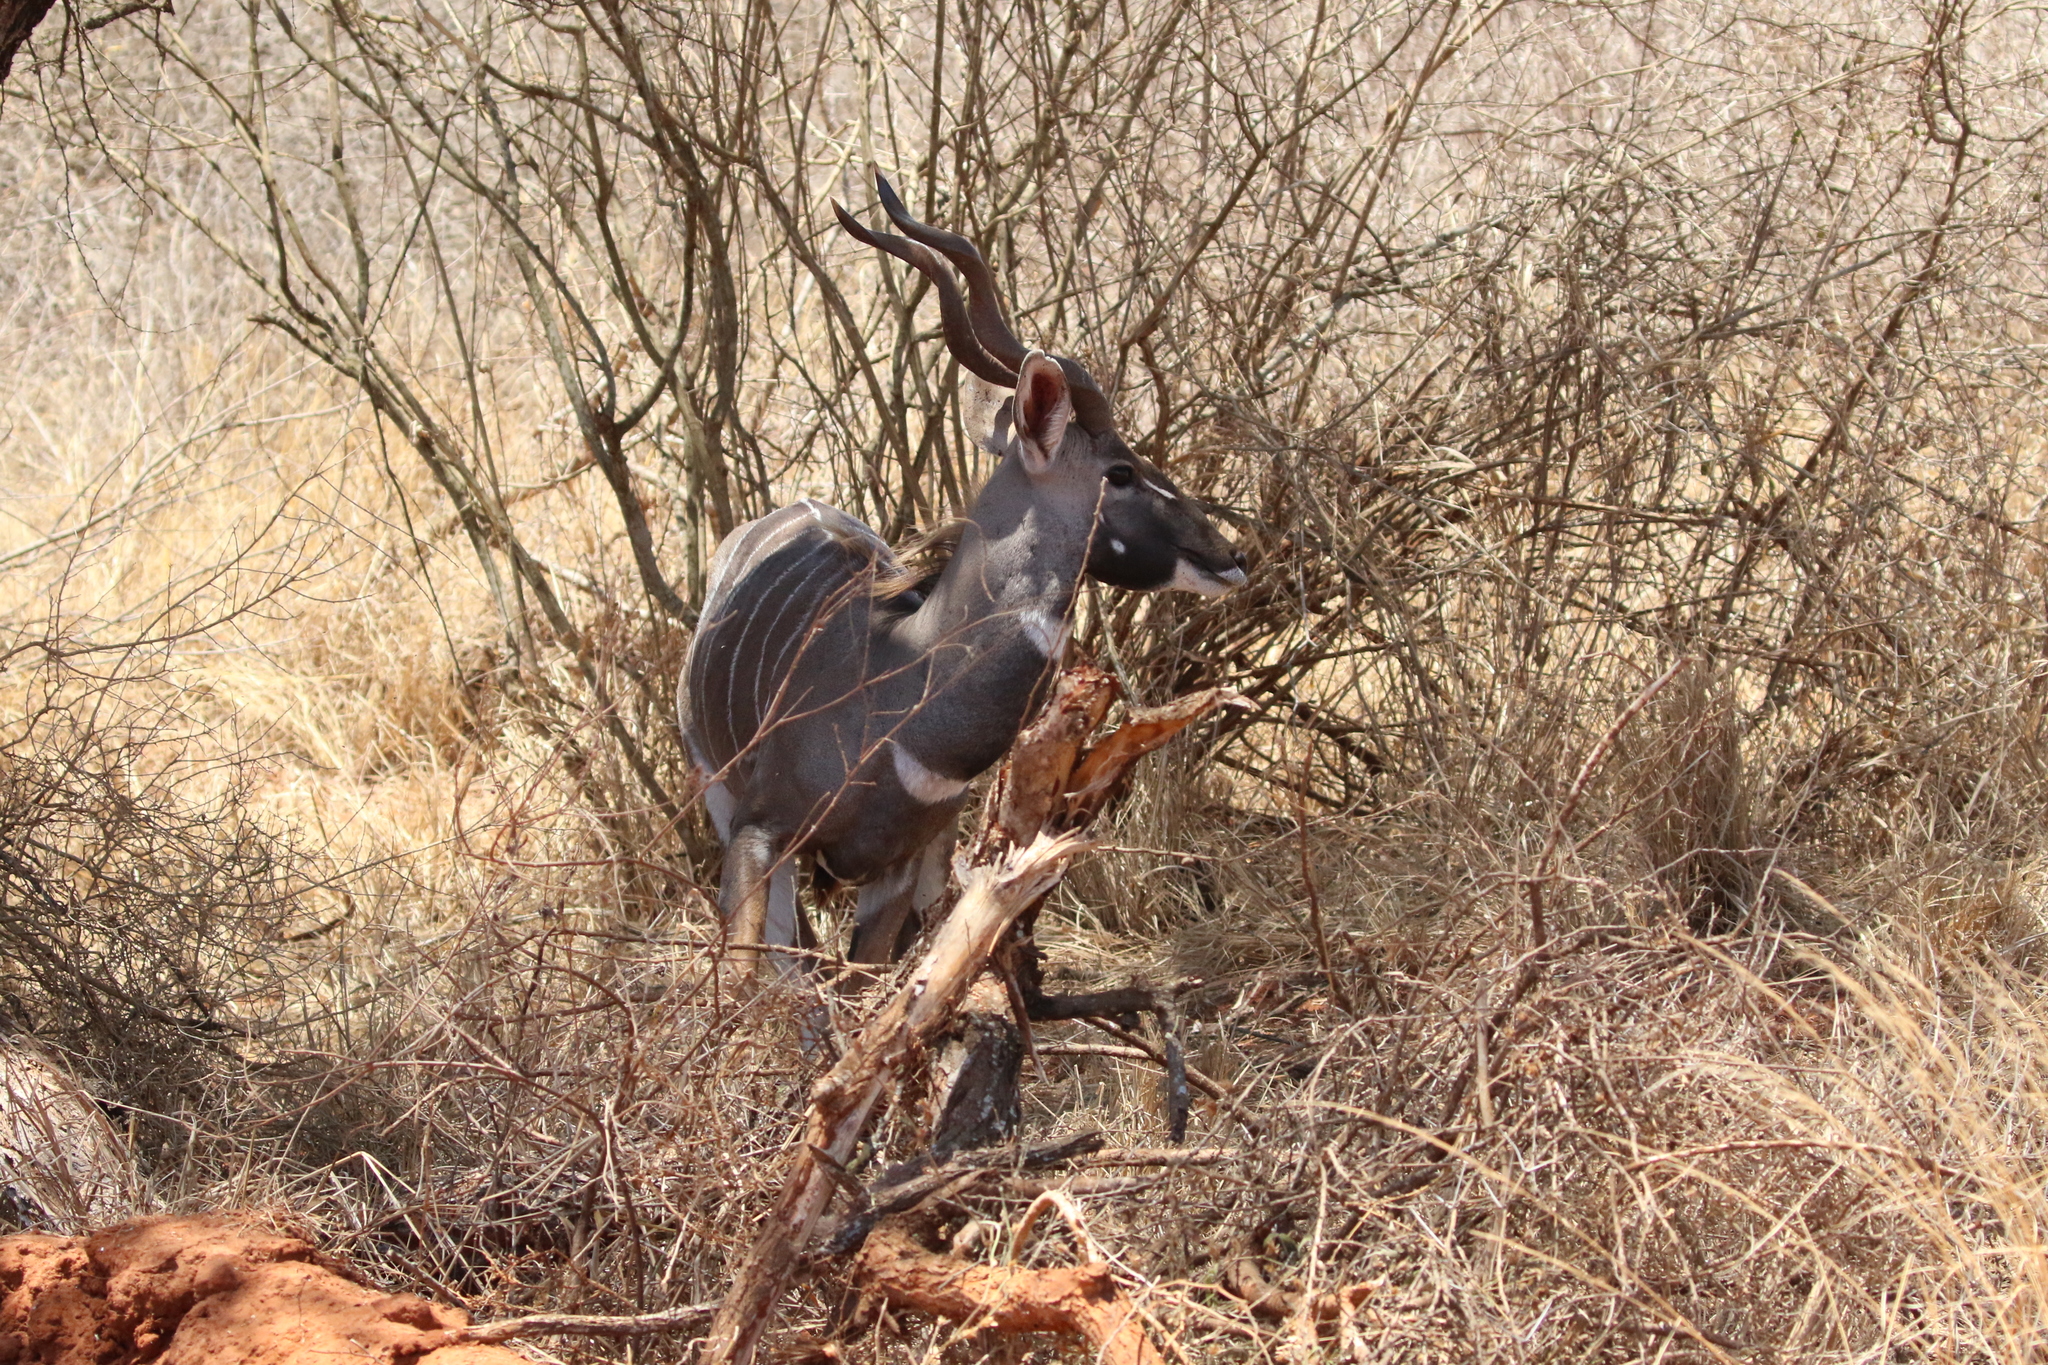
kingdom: Animalia
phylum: Chordata
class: Mammalia
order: Artiodactyla
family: Bovidae
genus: Tragelaphus
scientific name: Tragelaphus imberbis
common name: Lesser kudu
